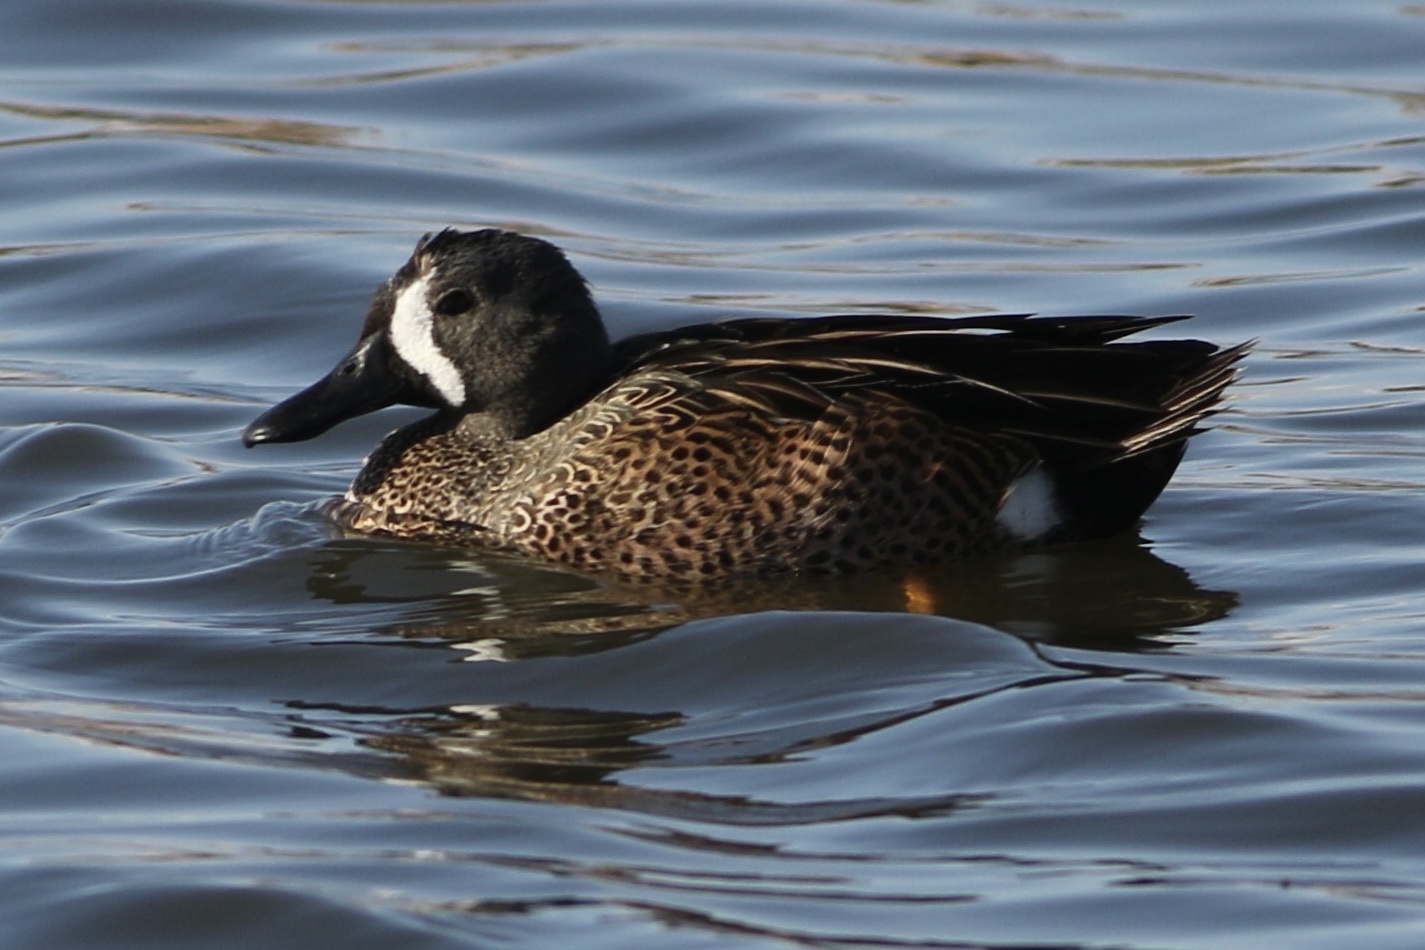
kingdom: Animalia
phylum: Chordata
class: Aves
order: Anseriformes
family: Anatidae
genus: Spatula
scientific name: Spatula discors
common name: Blue-winged teal
